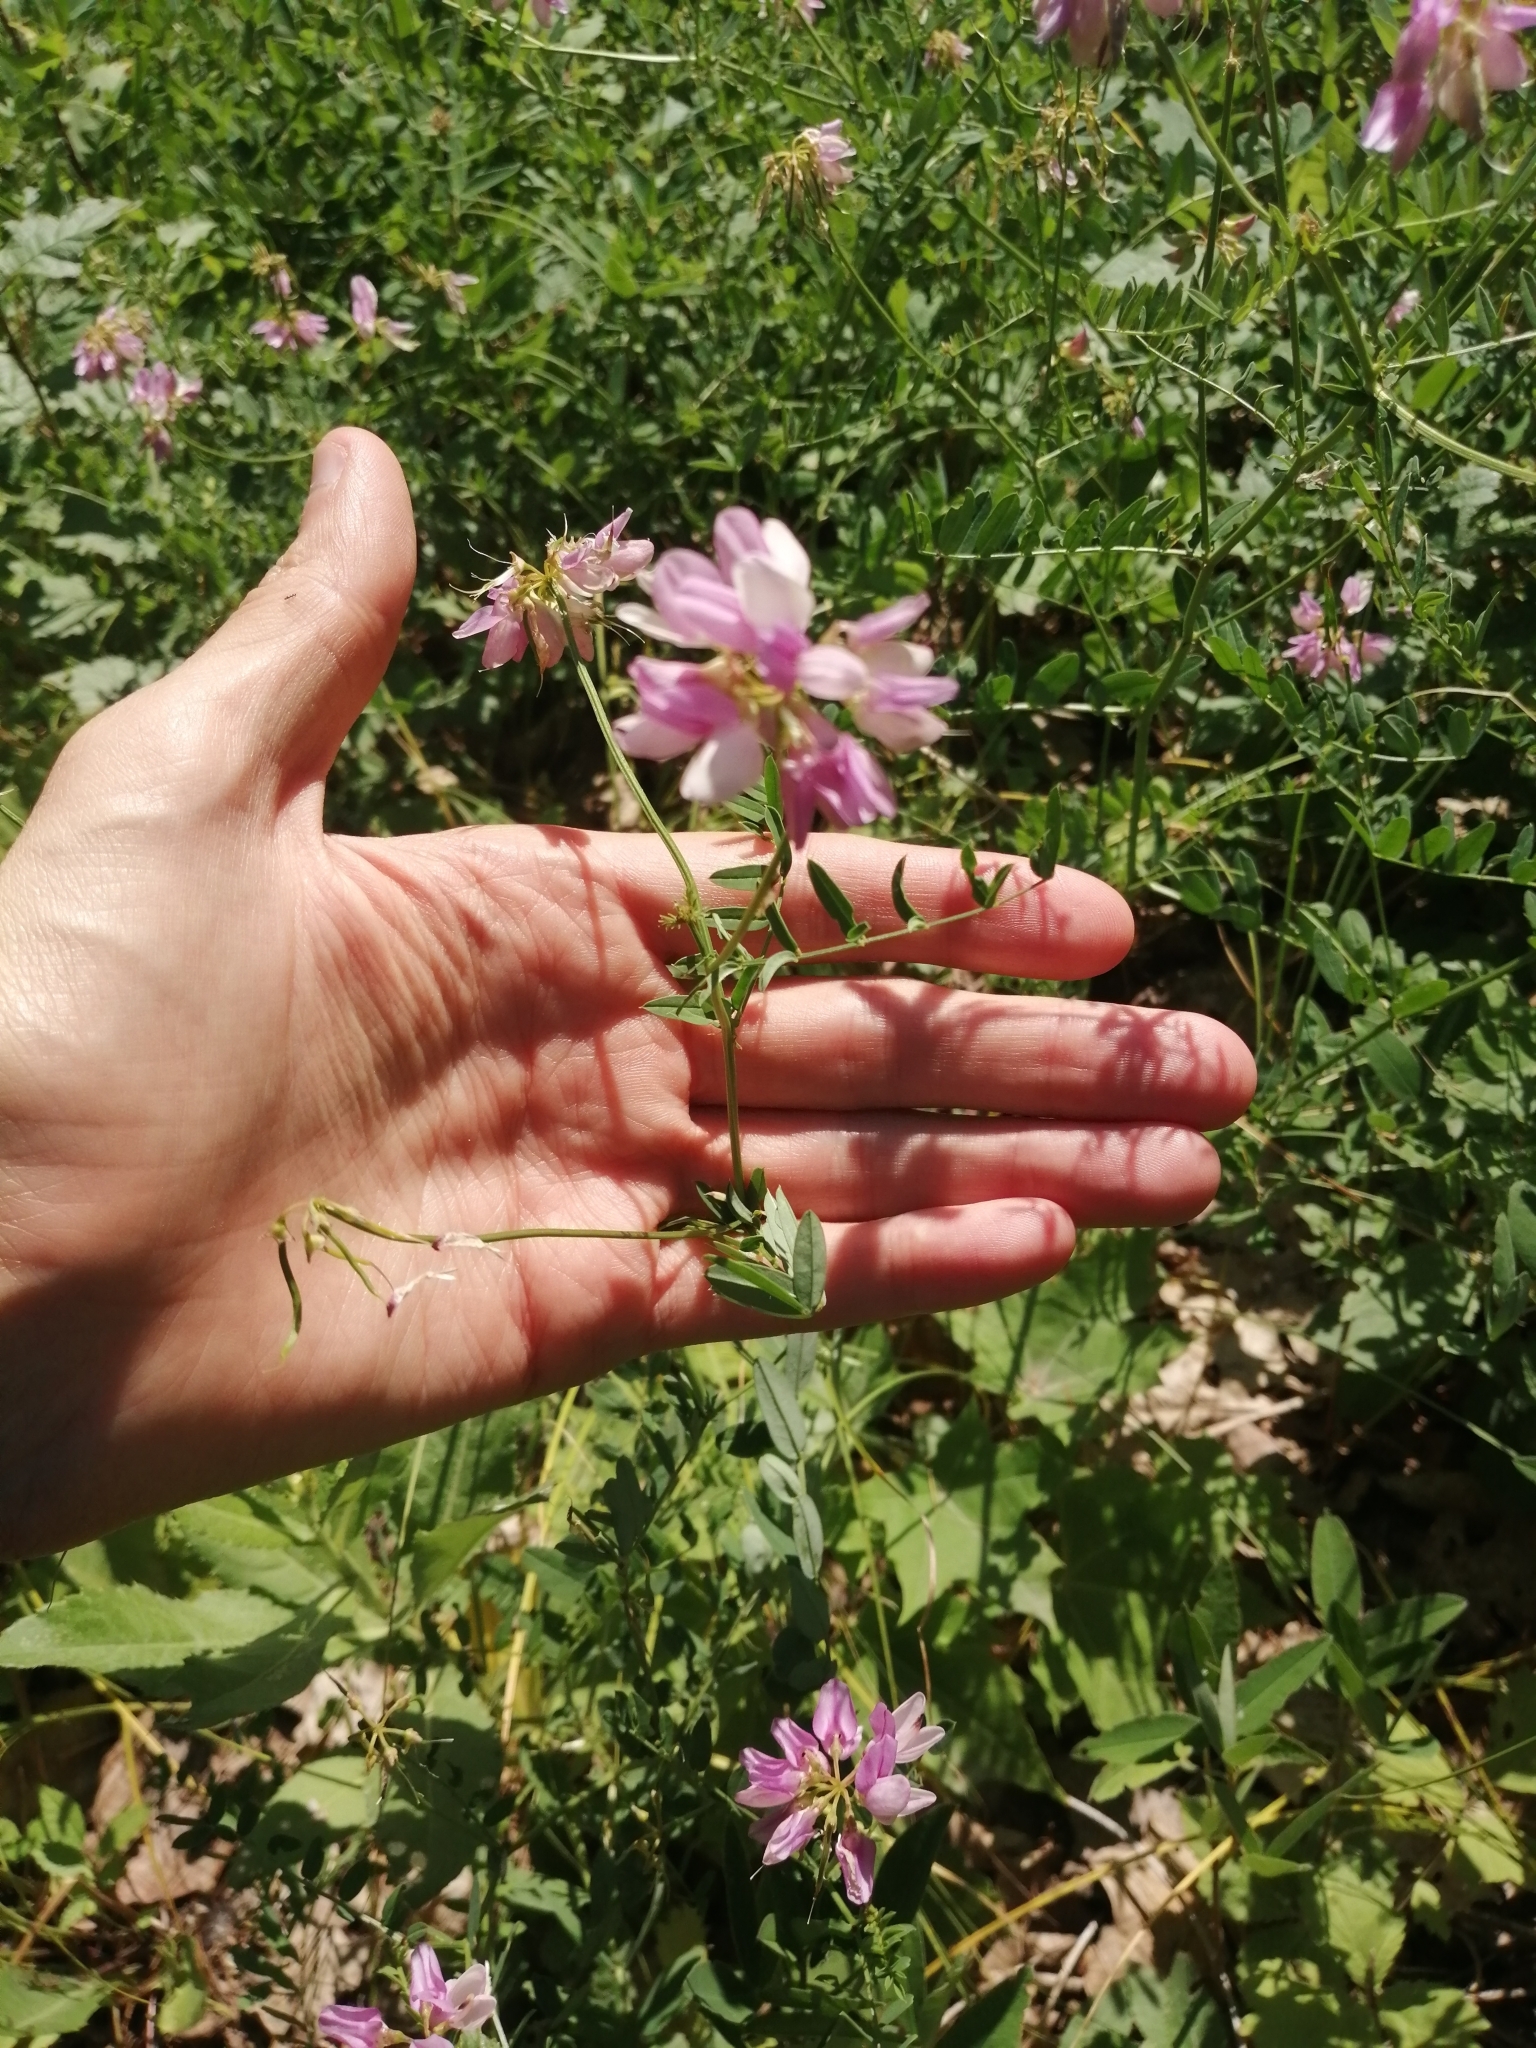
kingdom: Plantae
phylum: Tracheophyta
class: Magnoliopsida
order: Fabales
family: Fabaceae
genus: Coronilla
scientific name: Coronilla varia
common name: Crownvetch
